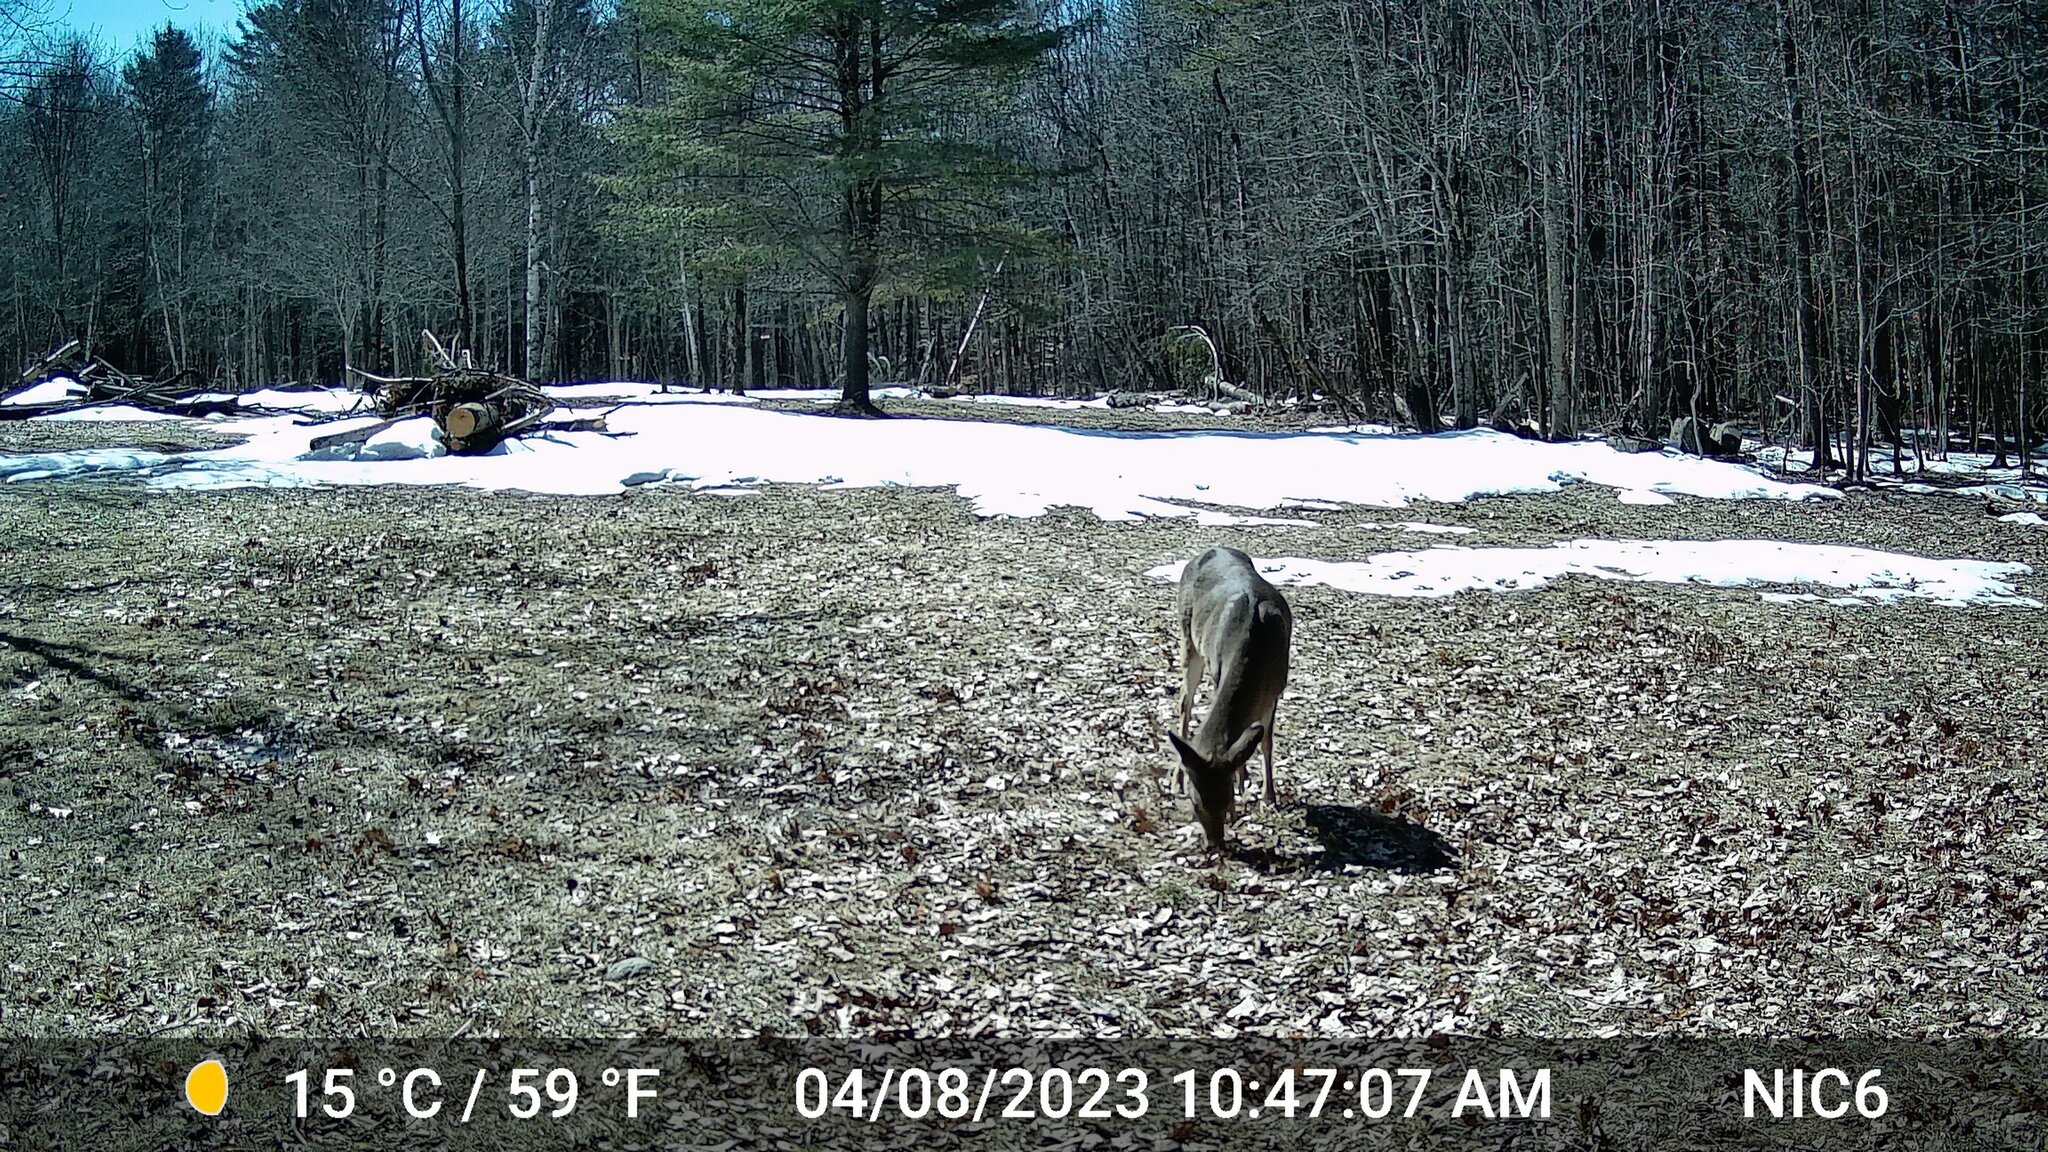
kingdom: Animalia
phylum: Chordata
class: Mammalia
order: Artiodactyla
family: Cervidae
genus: Odocoileus
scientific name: Odocoileus virginianus
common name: White-tailed deer
